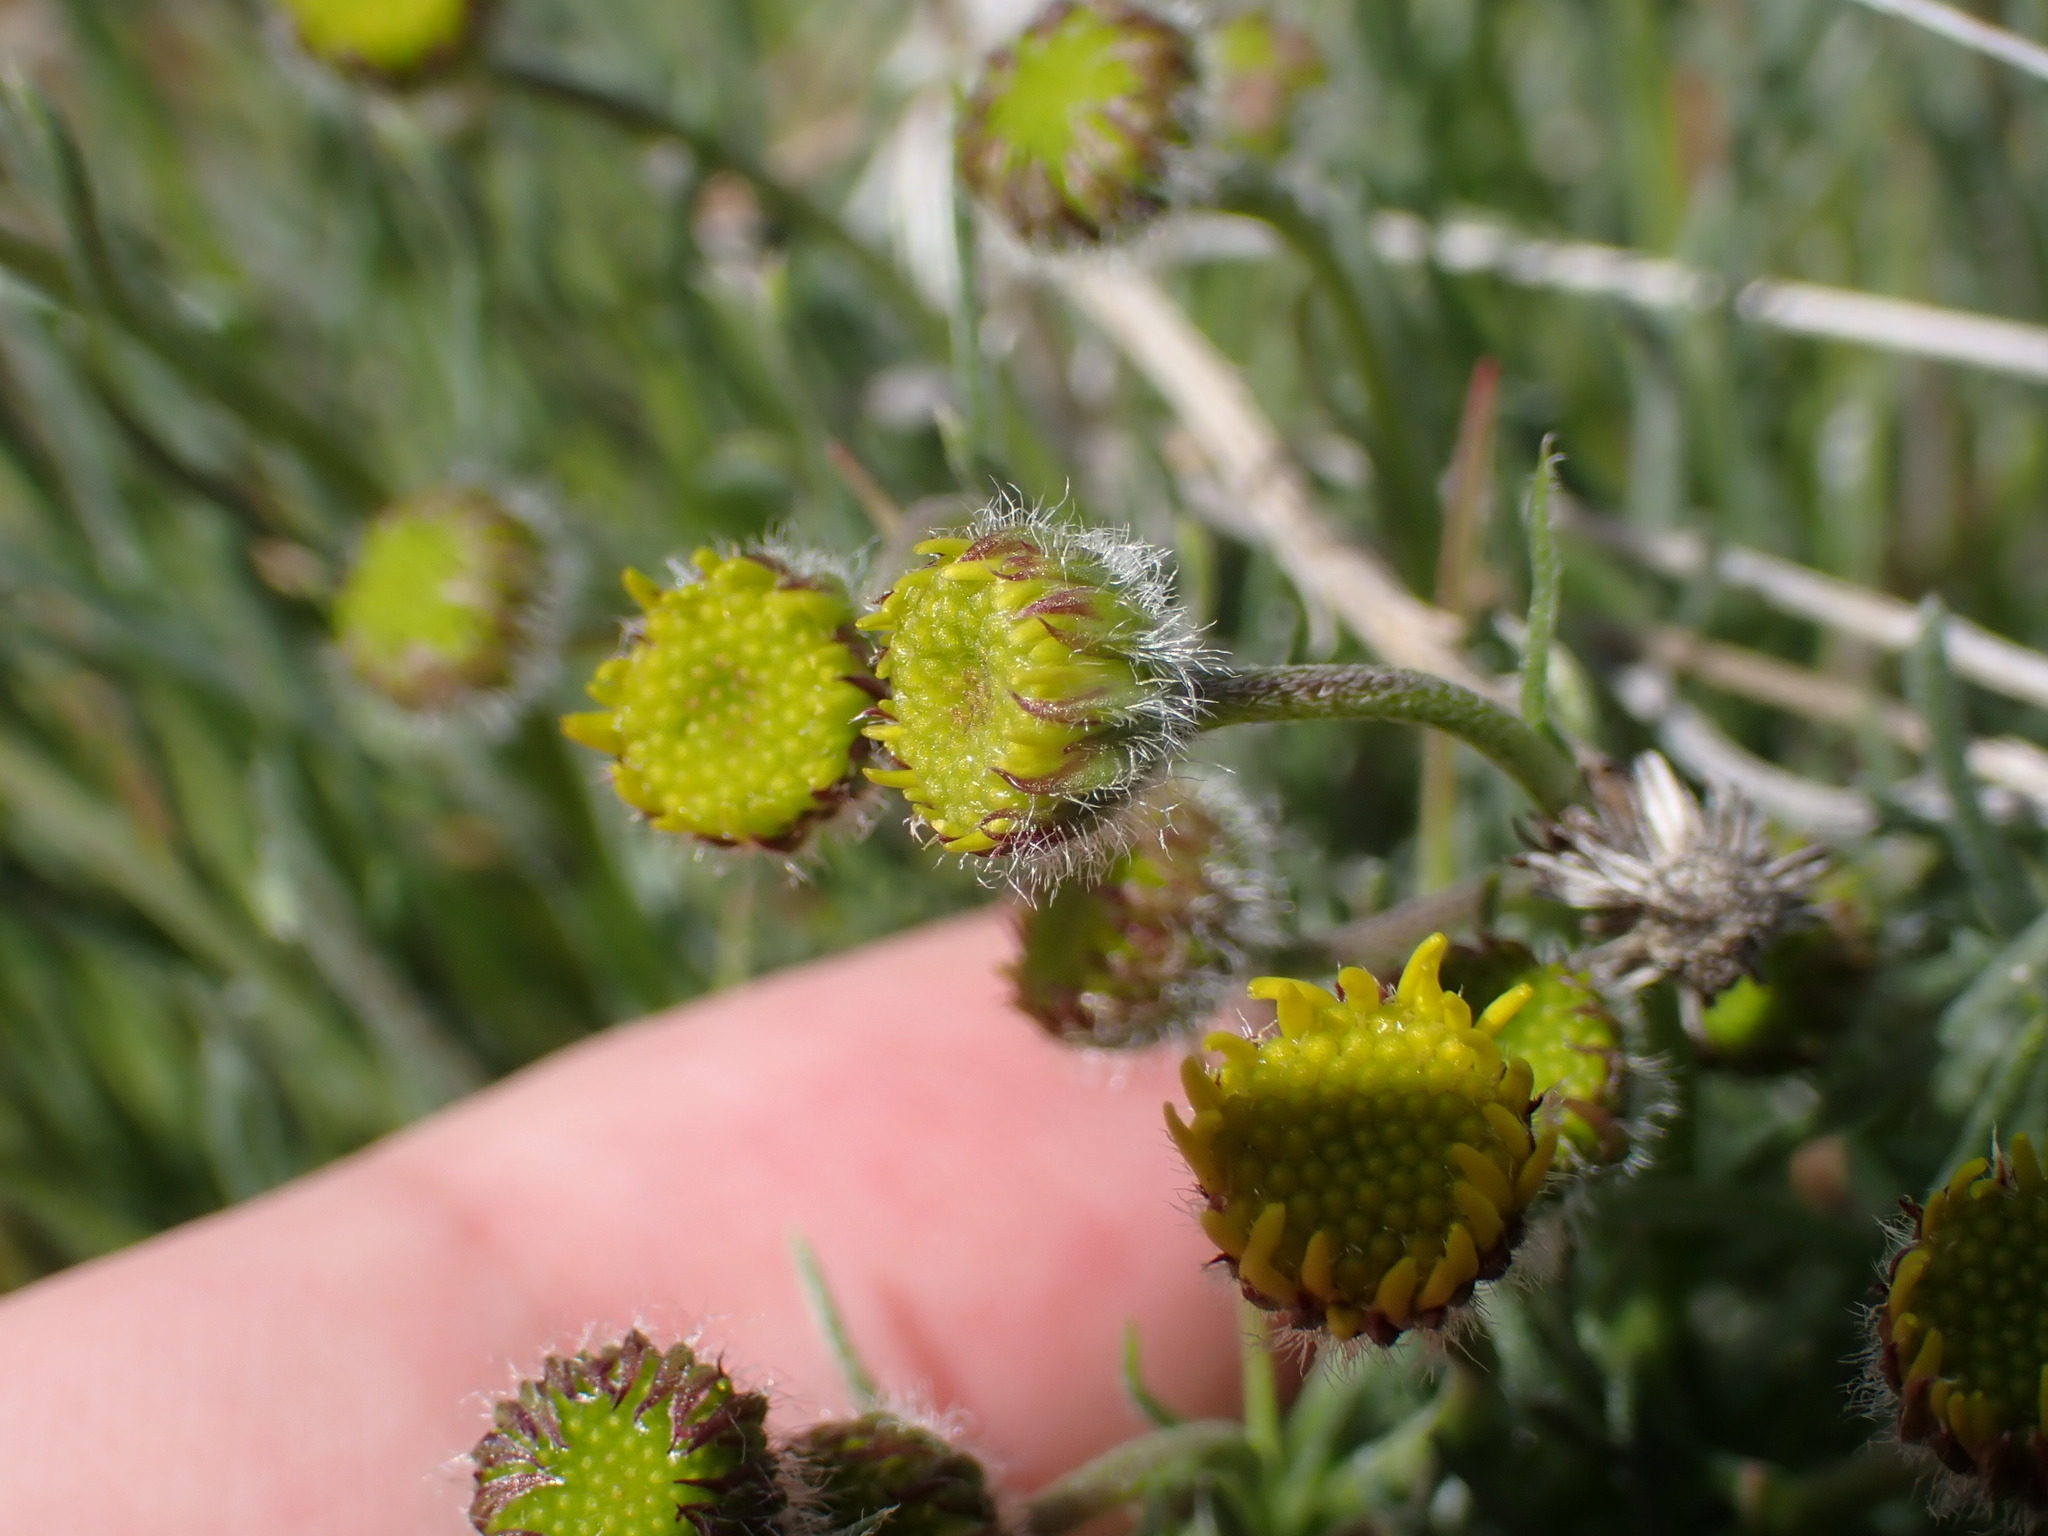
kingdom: Plantae
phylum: Tracheophyta
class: Magnoliopsida
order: Asterales
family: Asteraceae
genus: Erigeron
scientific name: Erigeron linearis
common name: Desert yellow fleabane
